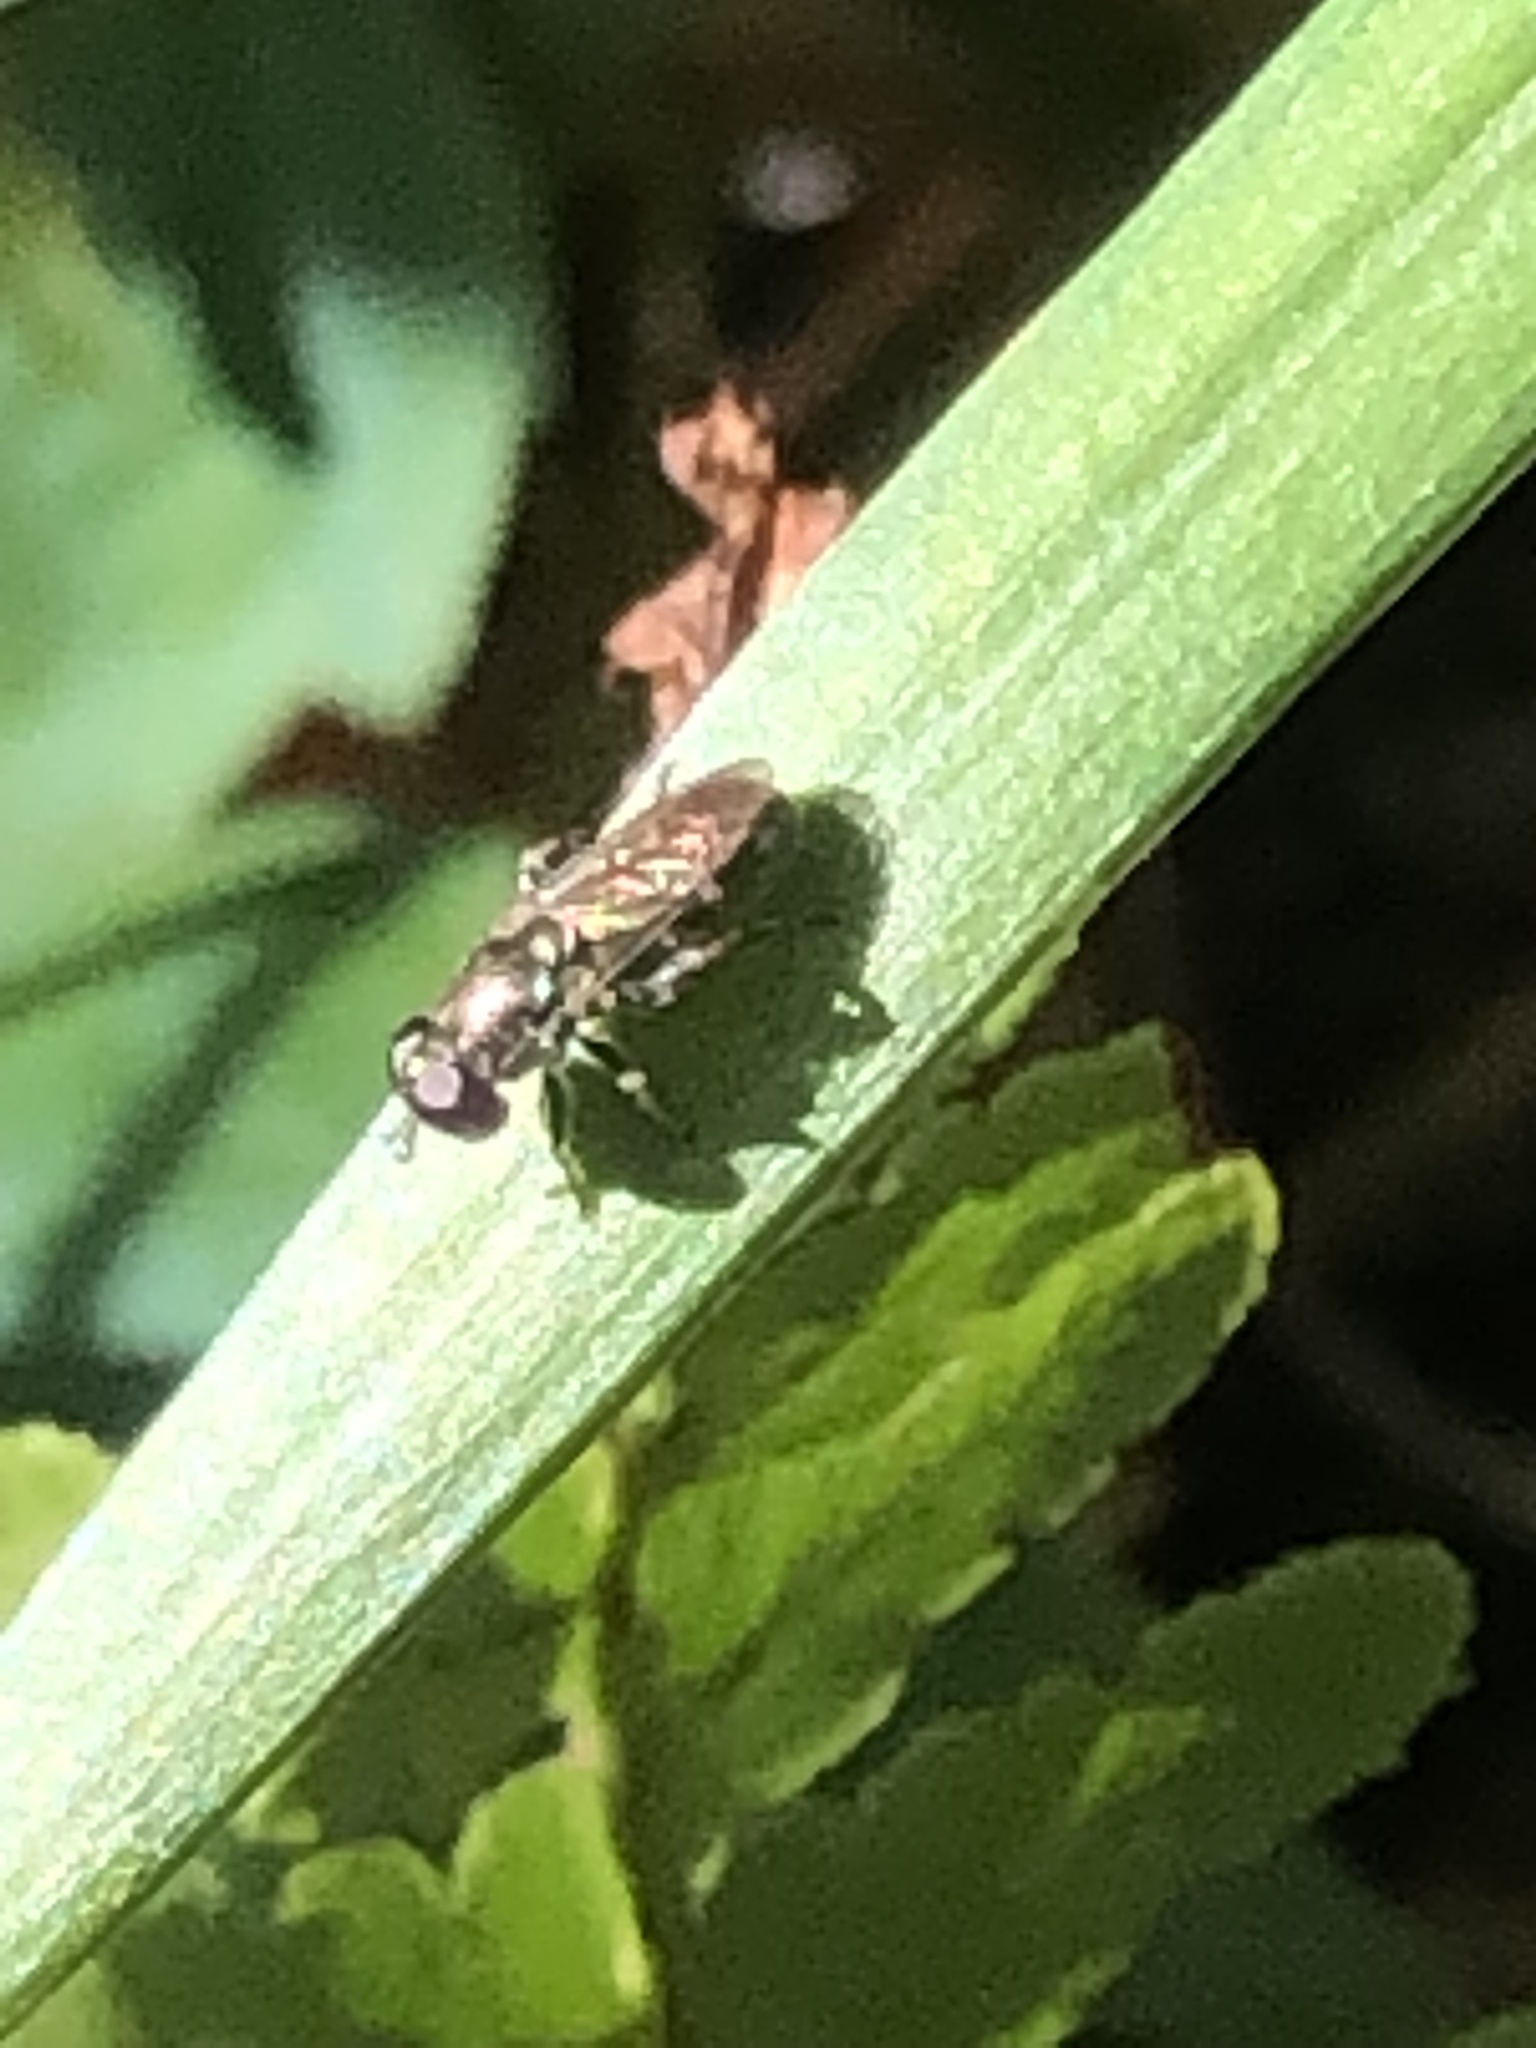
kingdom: Animalia
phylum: Arthropoda
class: Insecta
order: Diptera
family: Syrphidae
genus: Eumerus
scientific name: Eumerus
